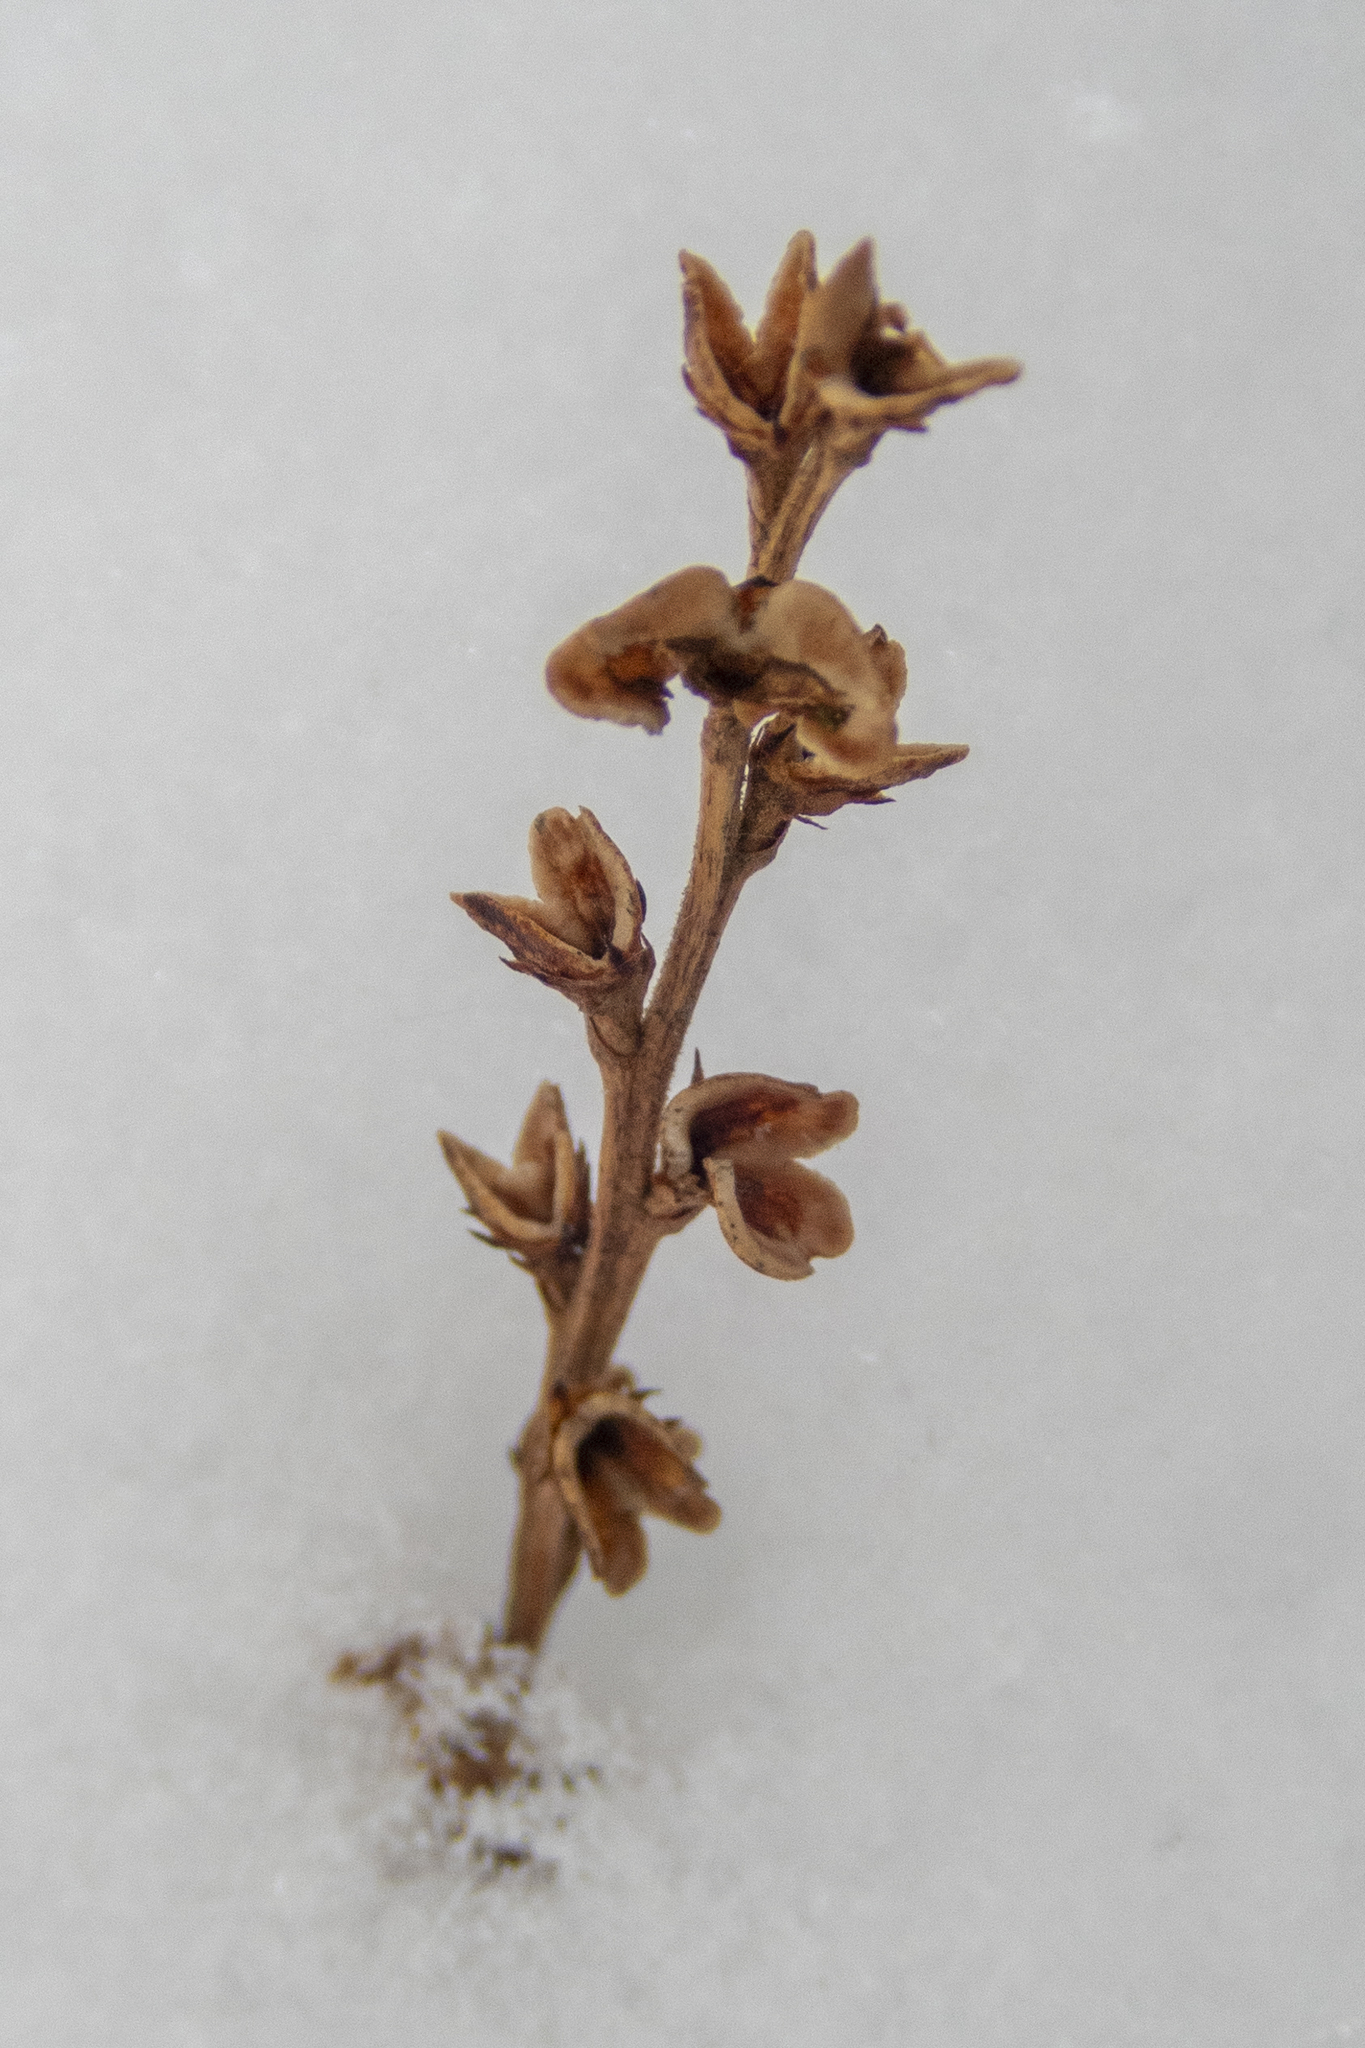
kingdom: Plantae
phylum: Tracheophyta
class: Magnoliopsida
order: Lamiales
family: Orobanchaceae
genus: Epifagus
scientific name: Epifagus virginiana
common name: Beechdrops
